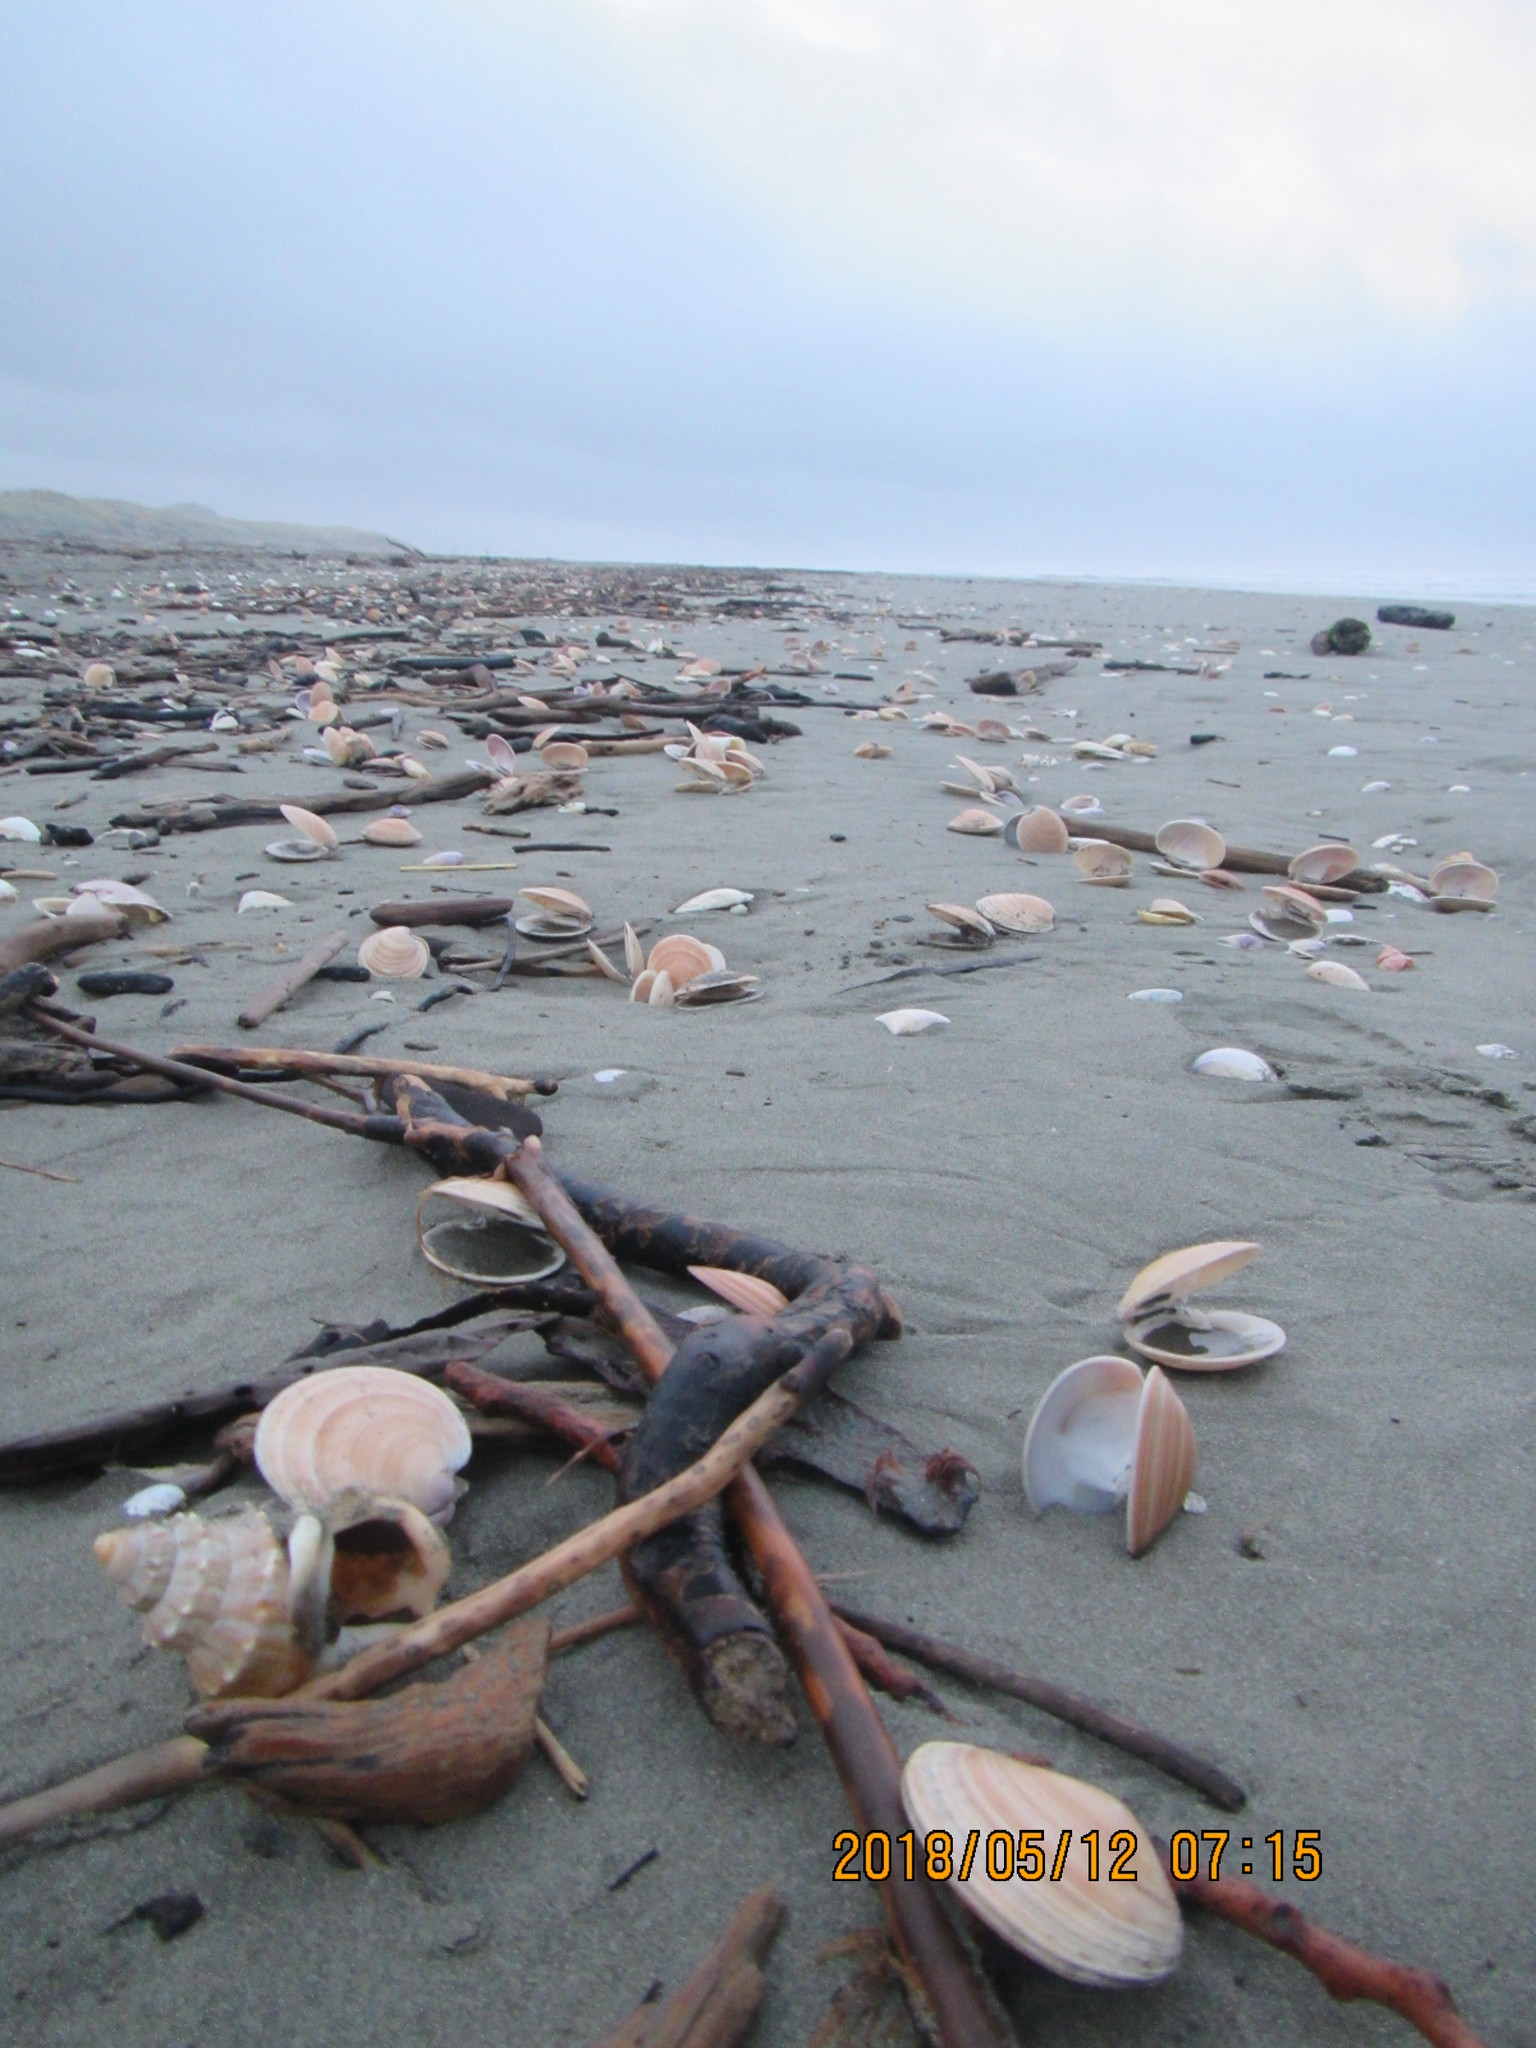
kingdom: Animalia
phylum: Mollusca
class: Gastropoda
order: Littorinimorpha
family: Struthiolariidae
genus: Struthiolaria
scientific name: Struthiolaria papulosa
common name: Large ostrich foot
